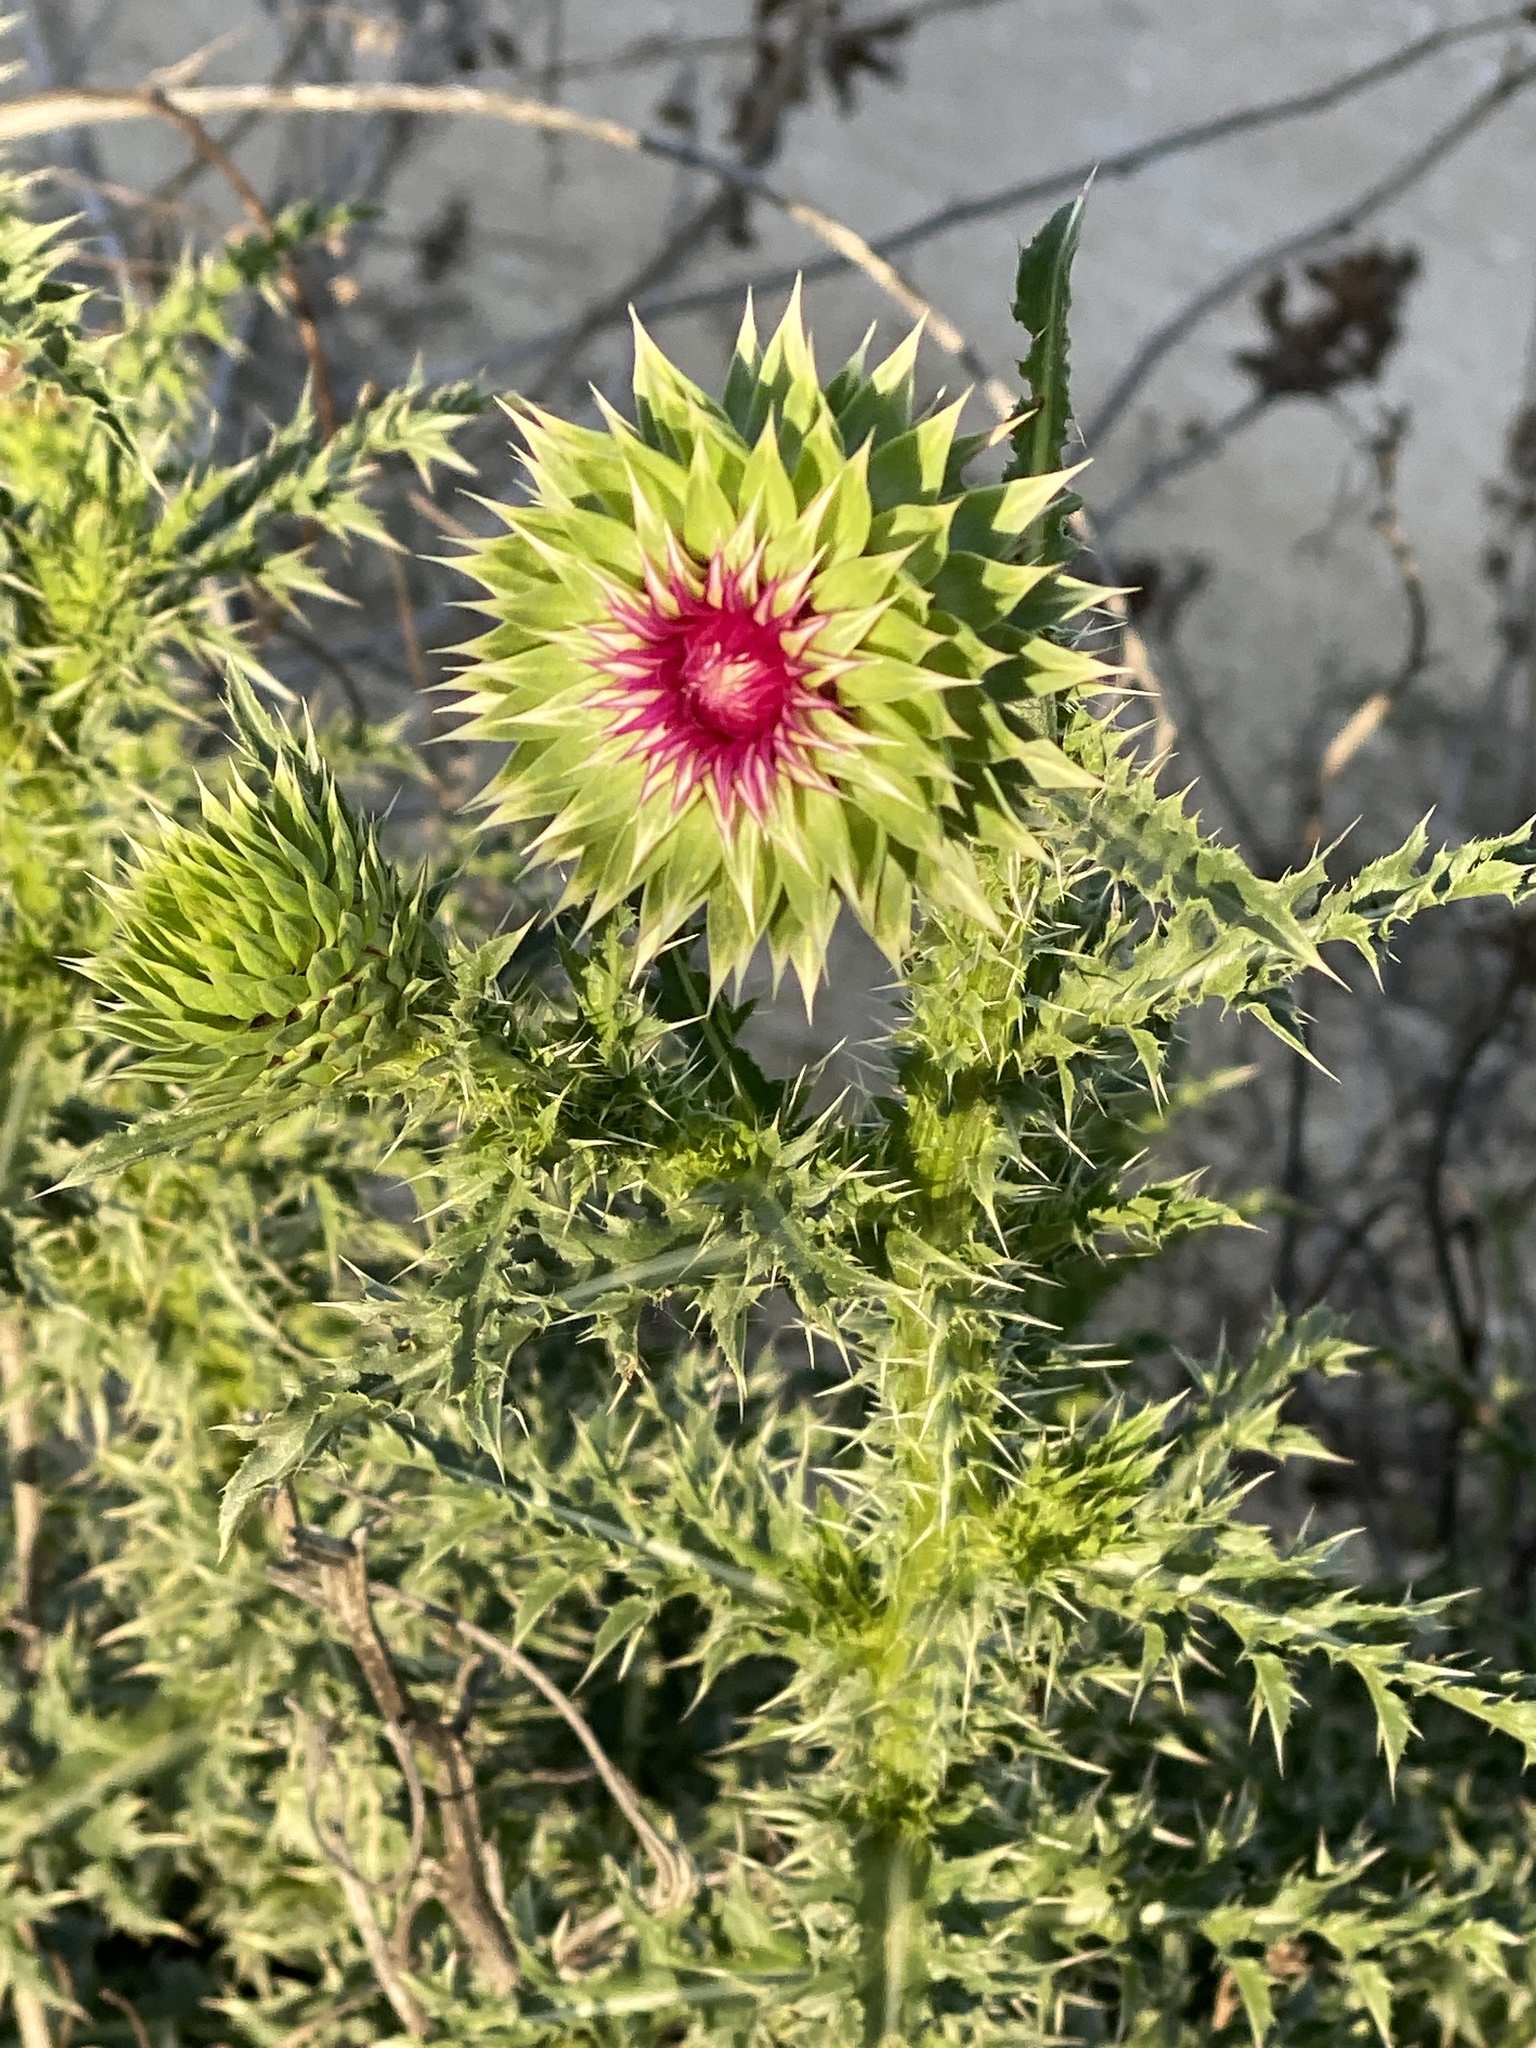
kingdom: Plantae
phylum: Tracheophyta
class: Magnoliopsida
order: Asterales
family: Asteraceae
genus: Carduus
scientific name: Carduus nutans
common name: Musk thistle
